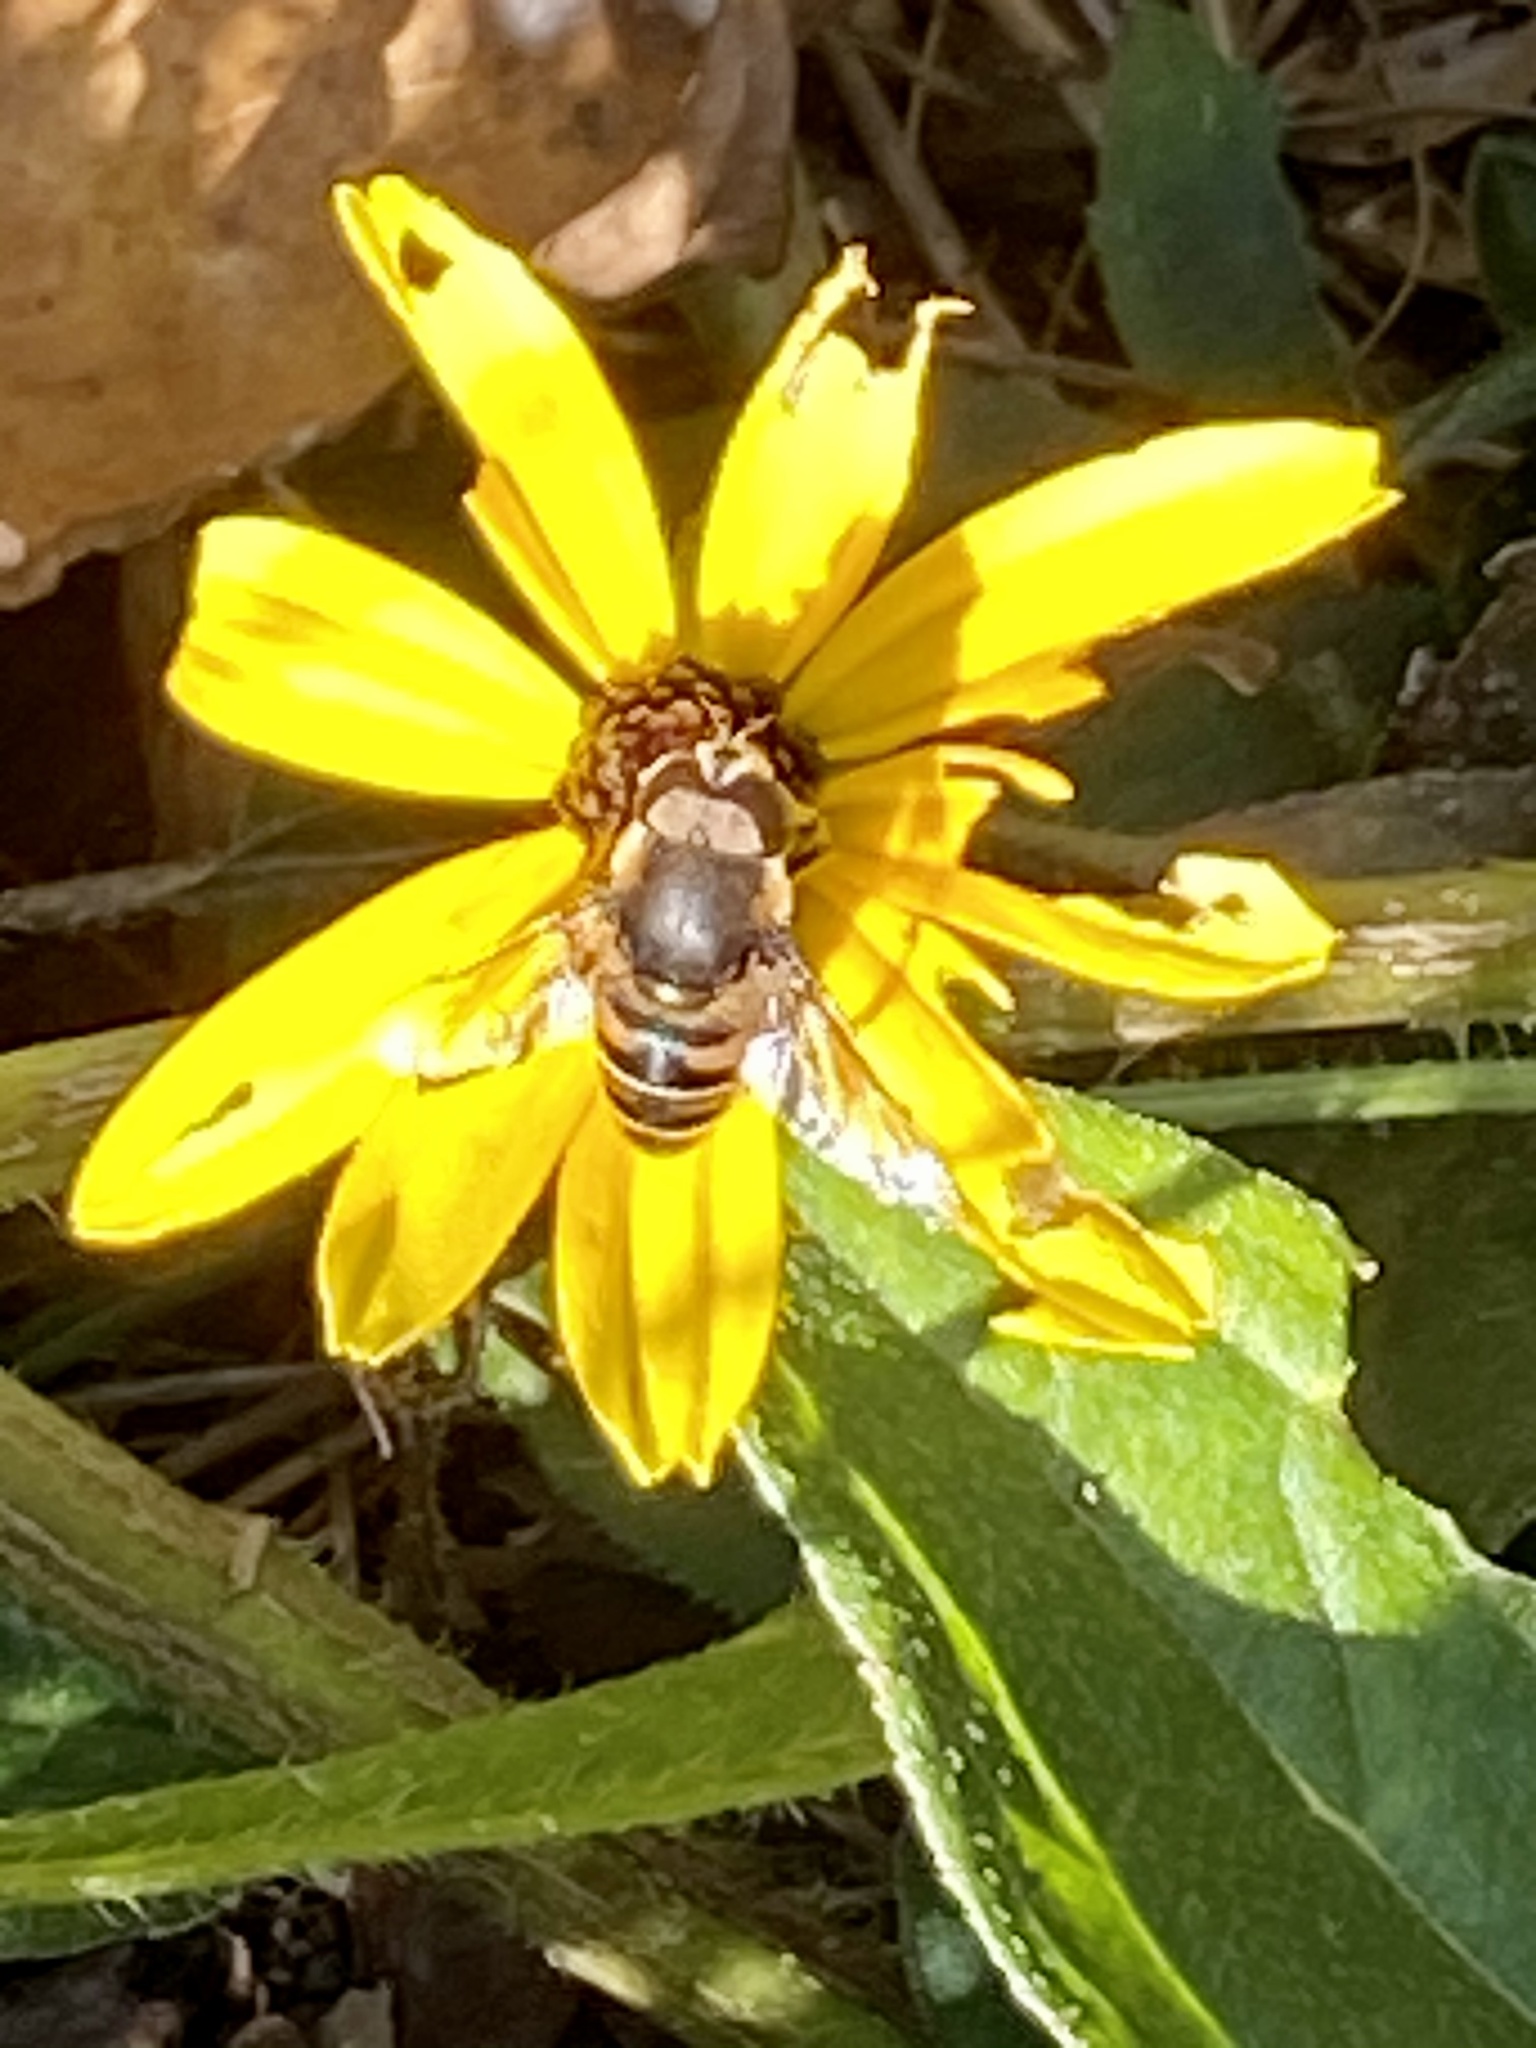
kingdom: Animalia
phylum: Arthropoda
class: Insecta
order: Diptera
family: Syrphidae
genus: Eristalis
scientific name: Eristalis dimidiata
